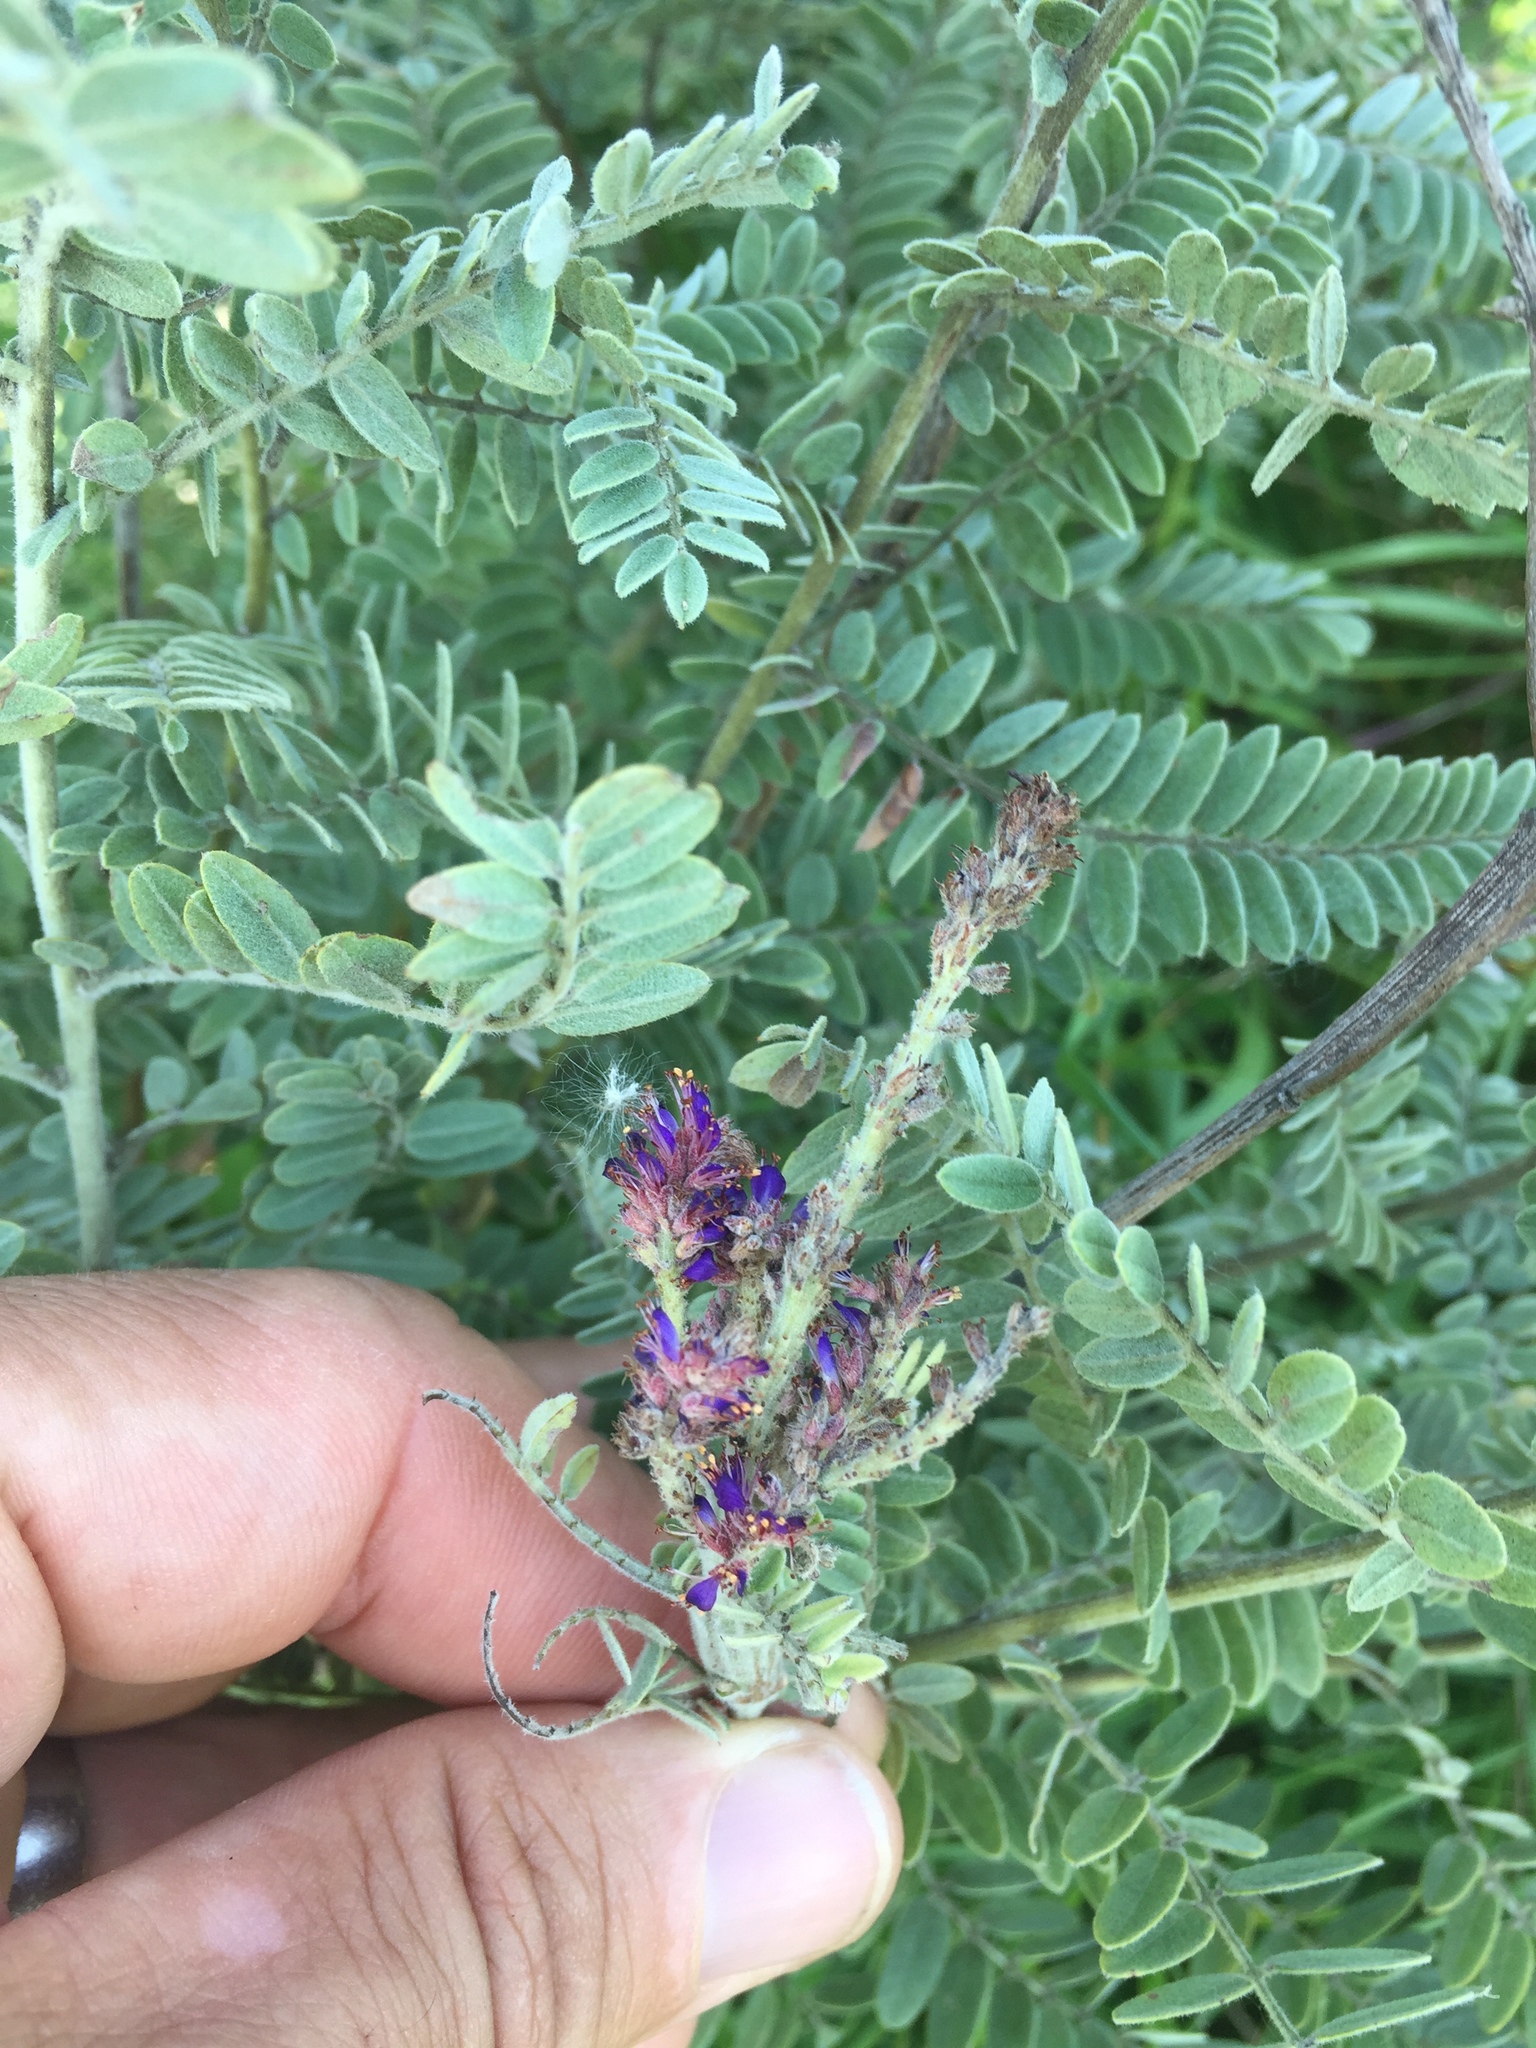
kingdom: Plantae
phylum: Tracheophyta
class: Magnoliopsida
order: Fabales
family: Fabaceae
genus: Amorpha
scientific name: Amorpha canescens
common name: Leadplant
